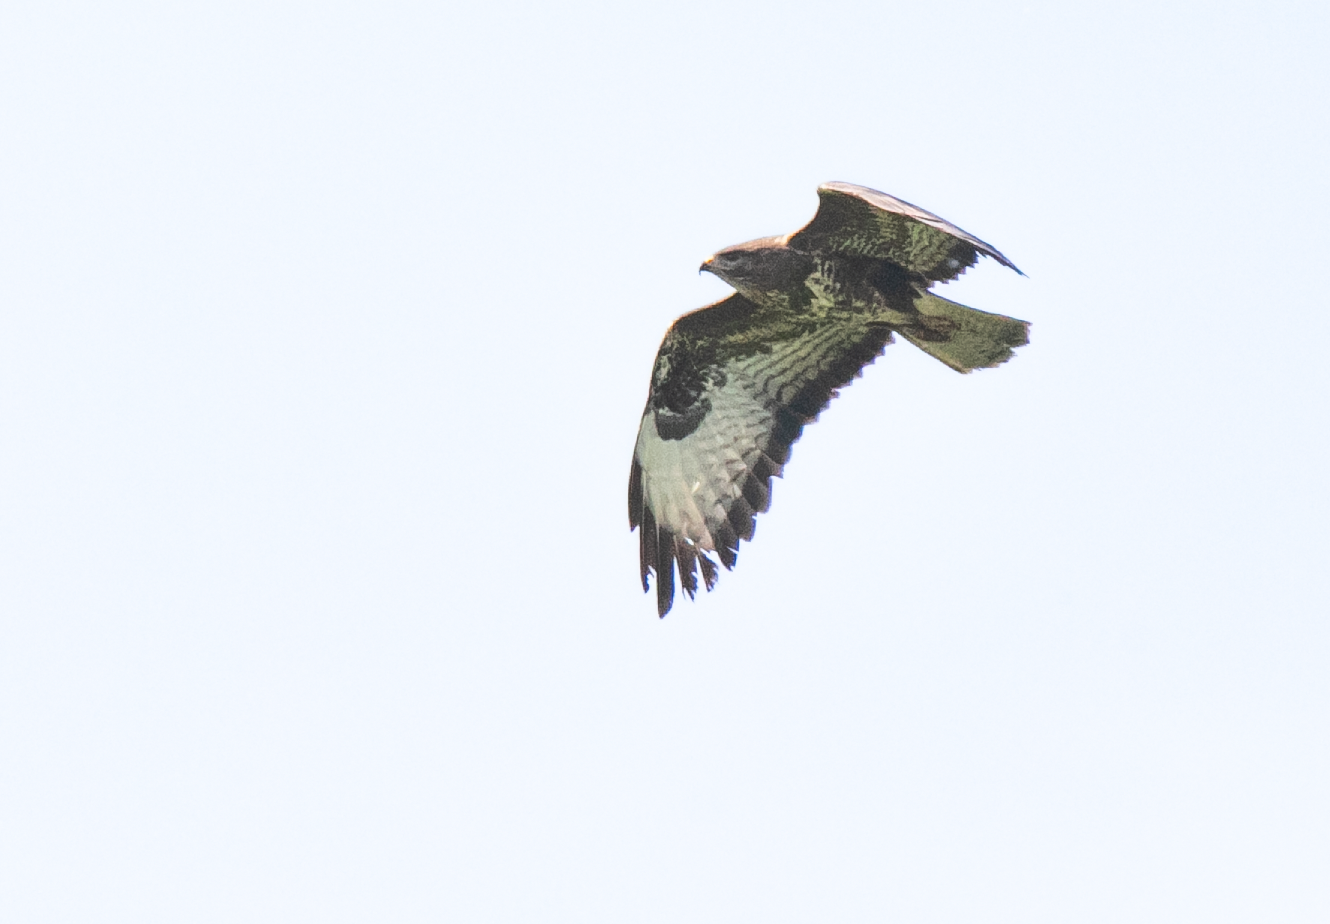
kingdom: Animalia
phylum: Chordata
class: Aves
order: Accipitriformes
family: Accipitridae
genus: Buteo
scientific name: Buteo buteo
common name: Common buzzard
